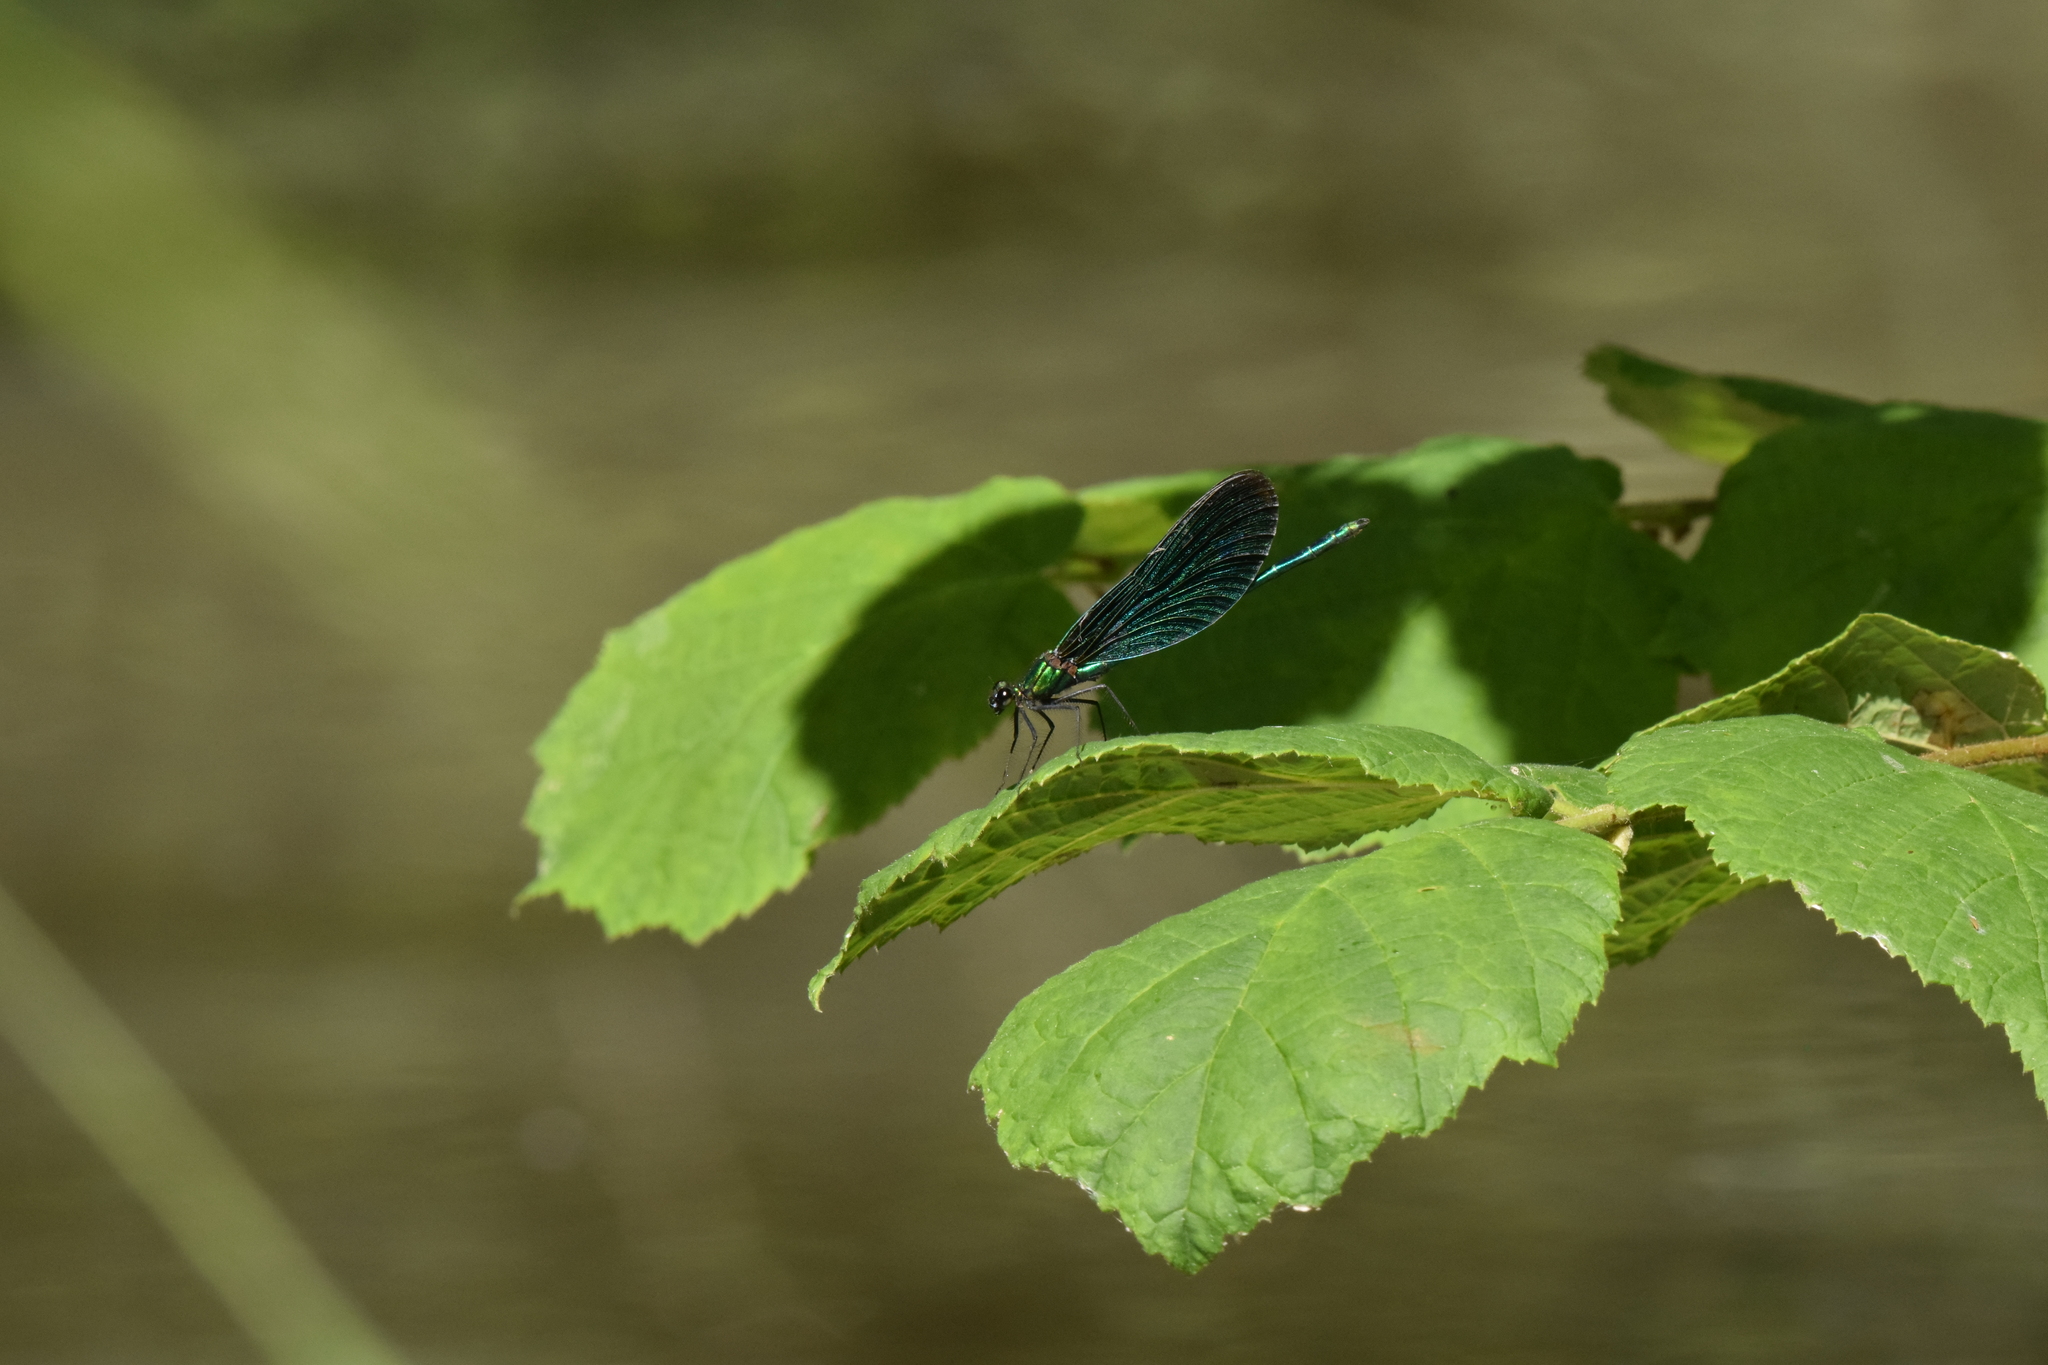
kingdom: Animalia
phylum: Arthropoda
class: Insecta
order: Odonata
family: Calopterygidae
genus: Calopteryx
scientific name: Calopteryx virgo
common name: Beautiful demoiselle
